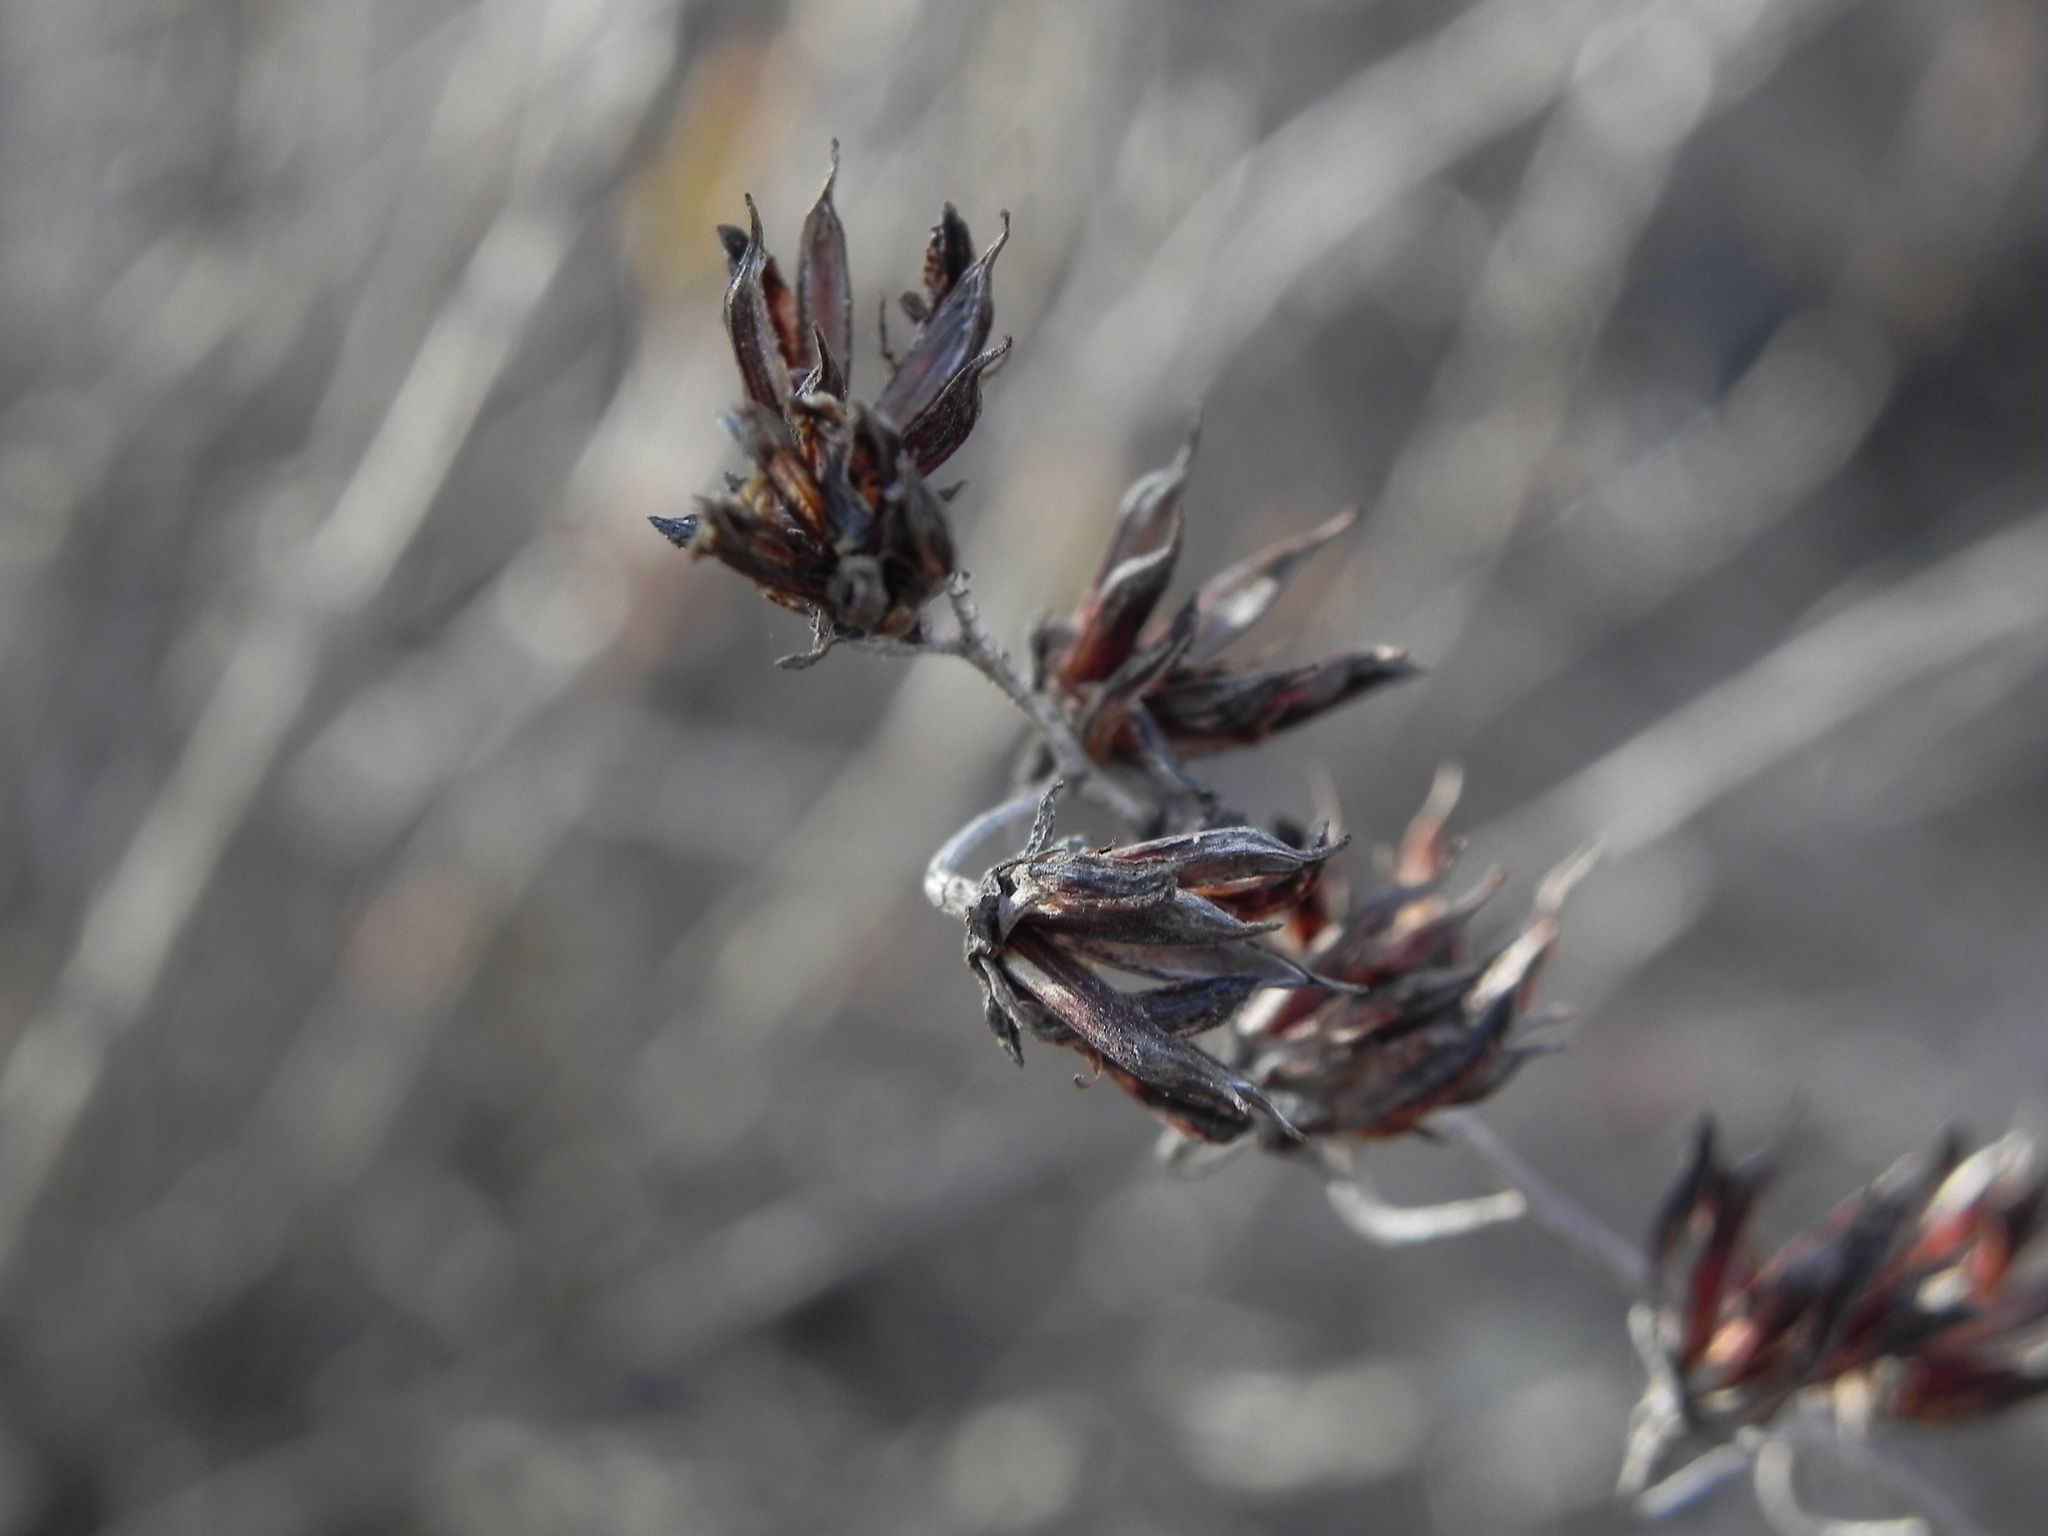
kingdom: Plantae
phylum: Tracheophyta
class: Magnoliopsida
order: Saxifragales
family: Crassulaceae
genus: Dudleya
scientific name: Dudleya pulverulenta
